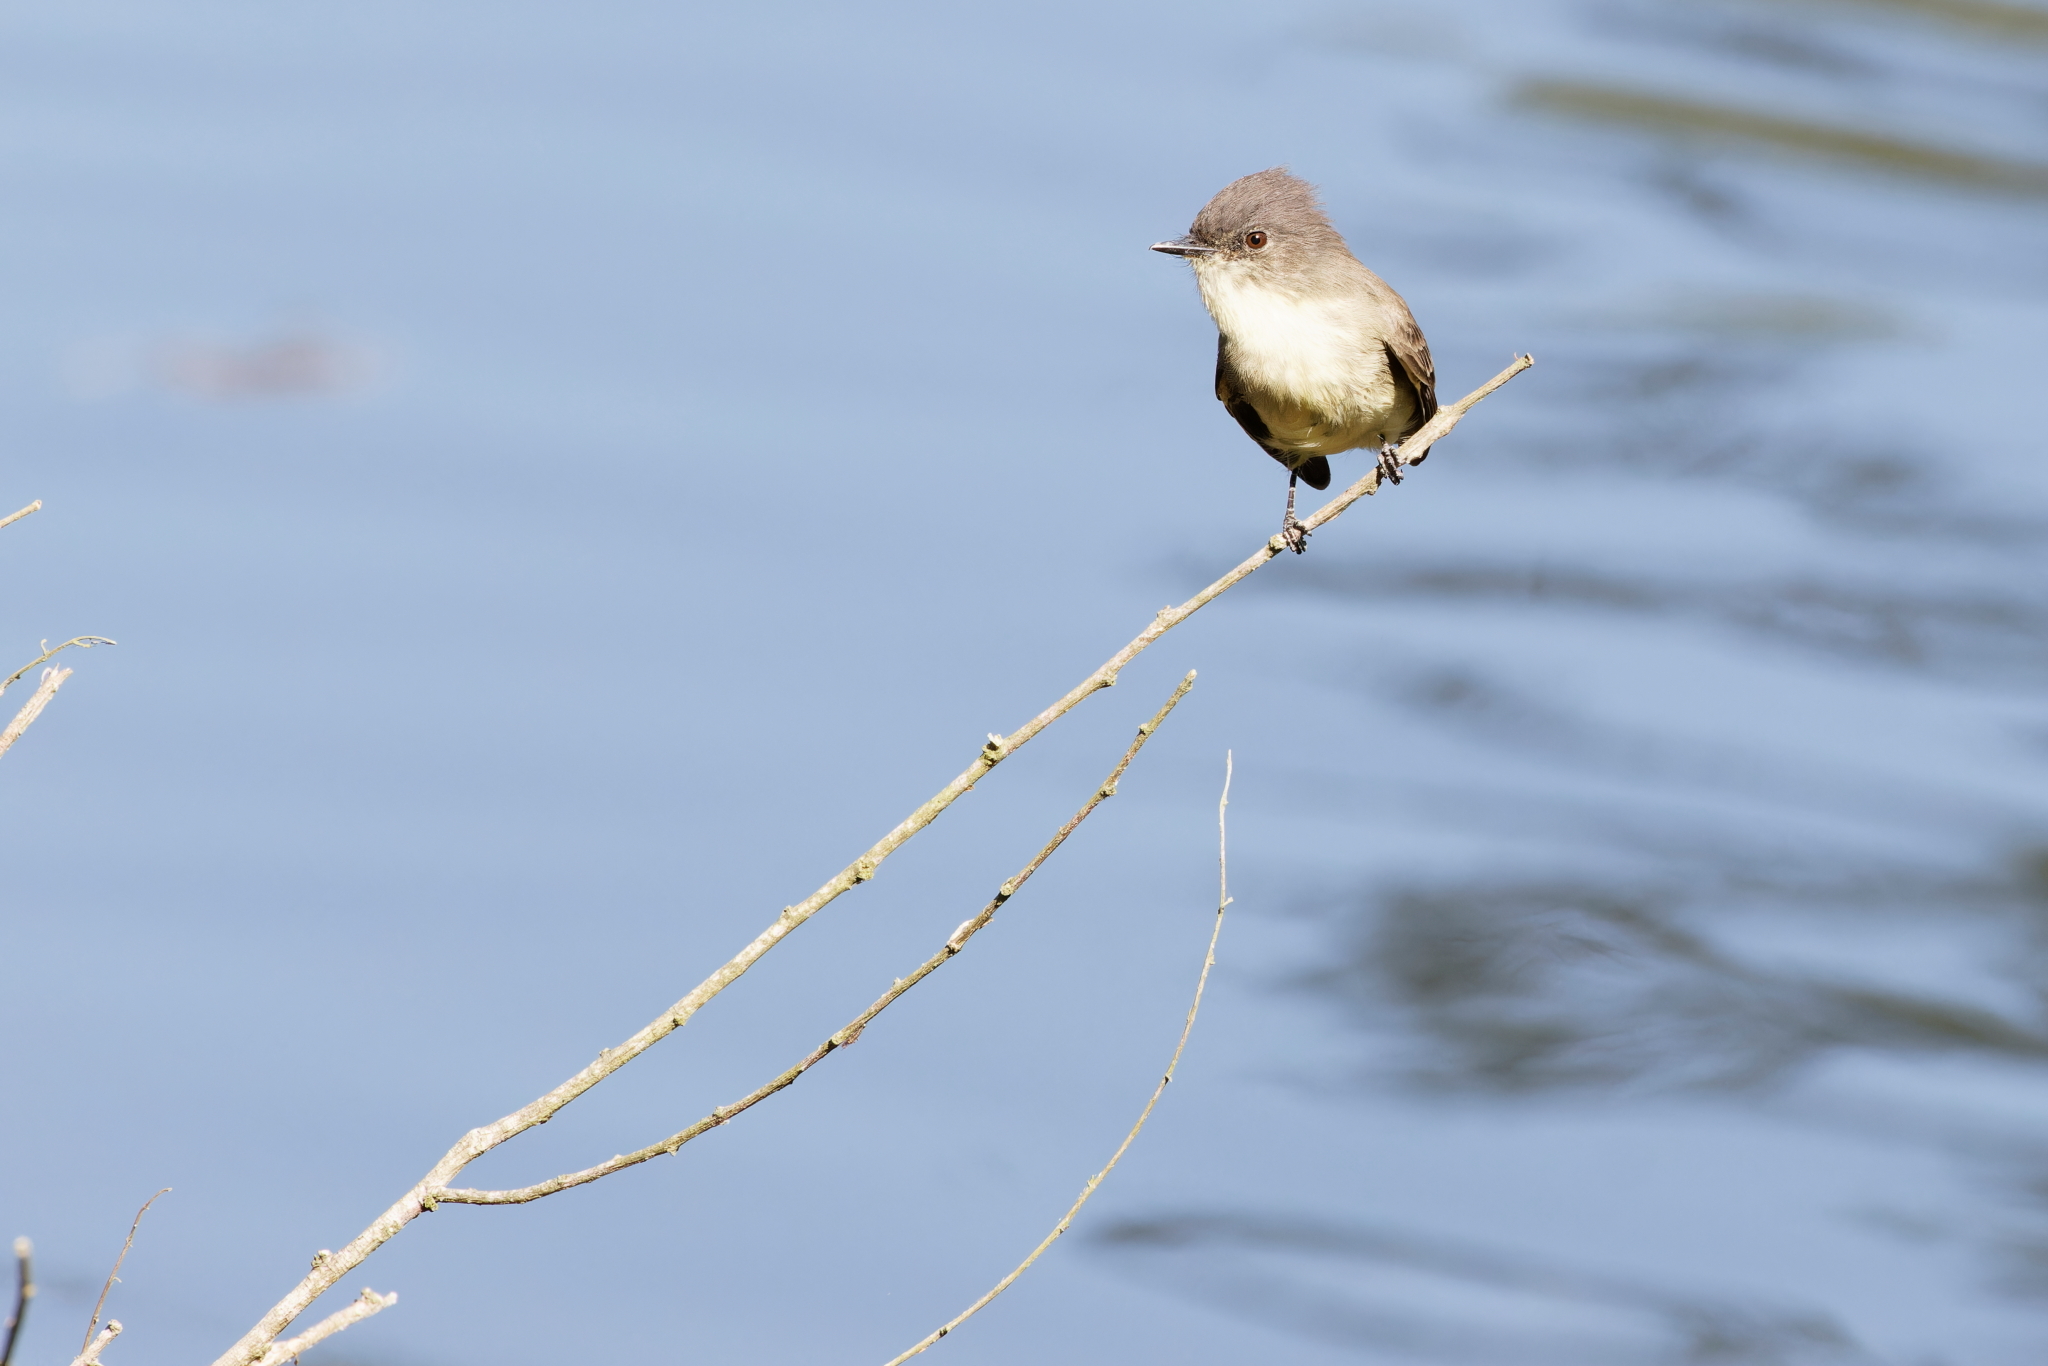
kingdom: Animalia
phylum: Chordata
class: Aves
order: Passeriformes
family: Tyrannidae
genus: Sayornis
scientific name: Sayornis phoebe
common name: Eastern phoebe
